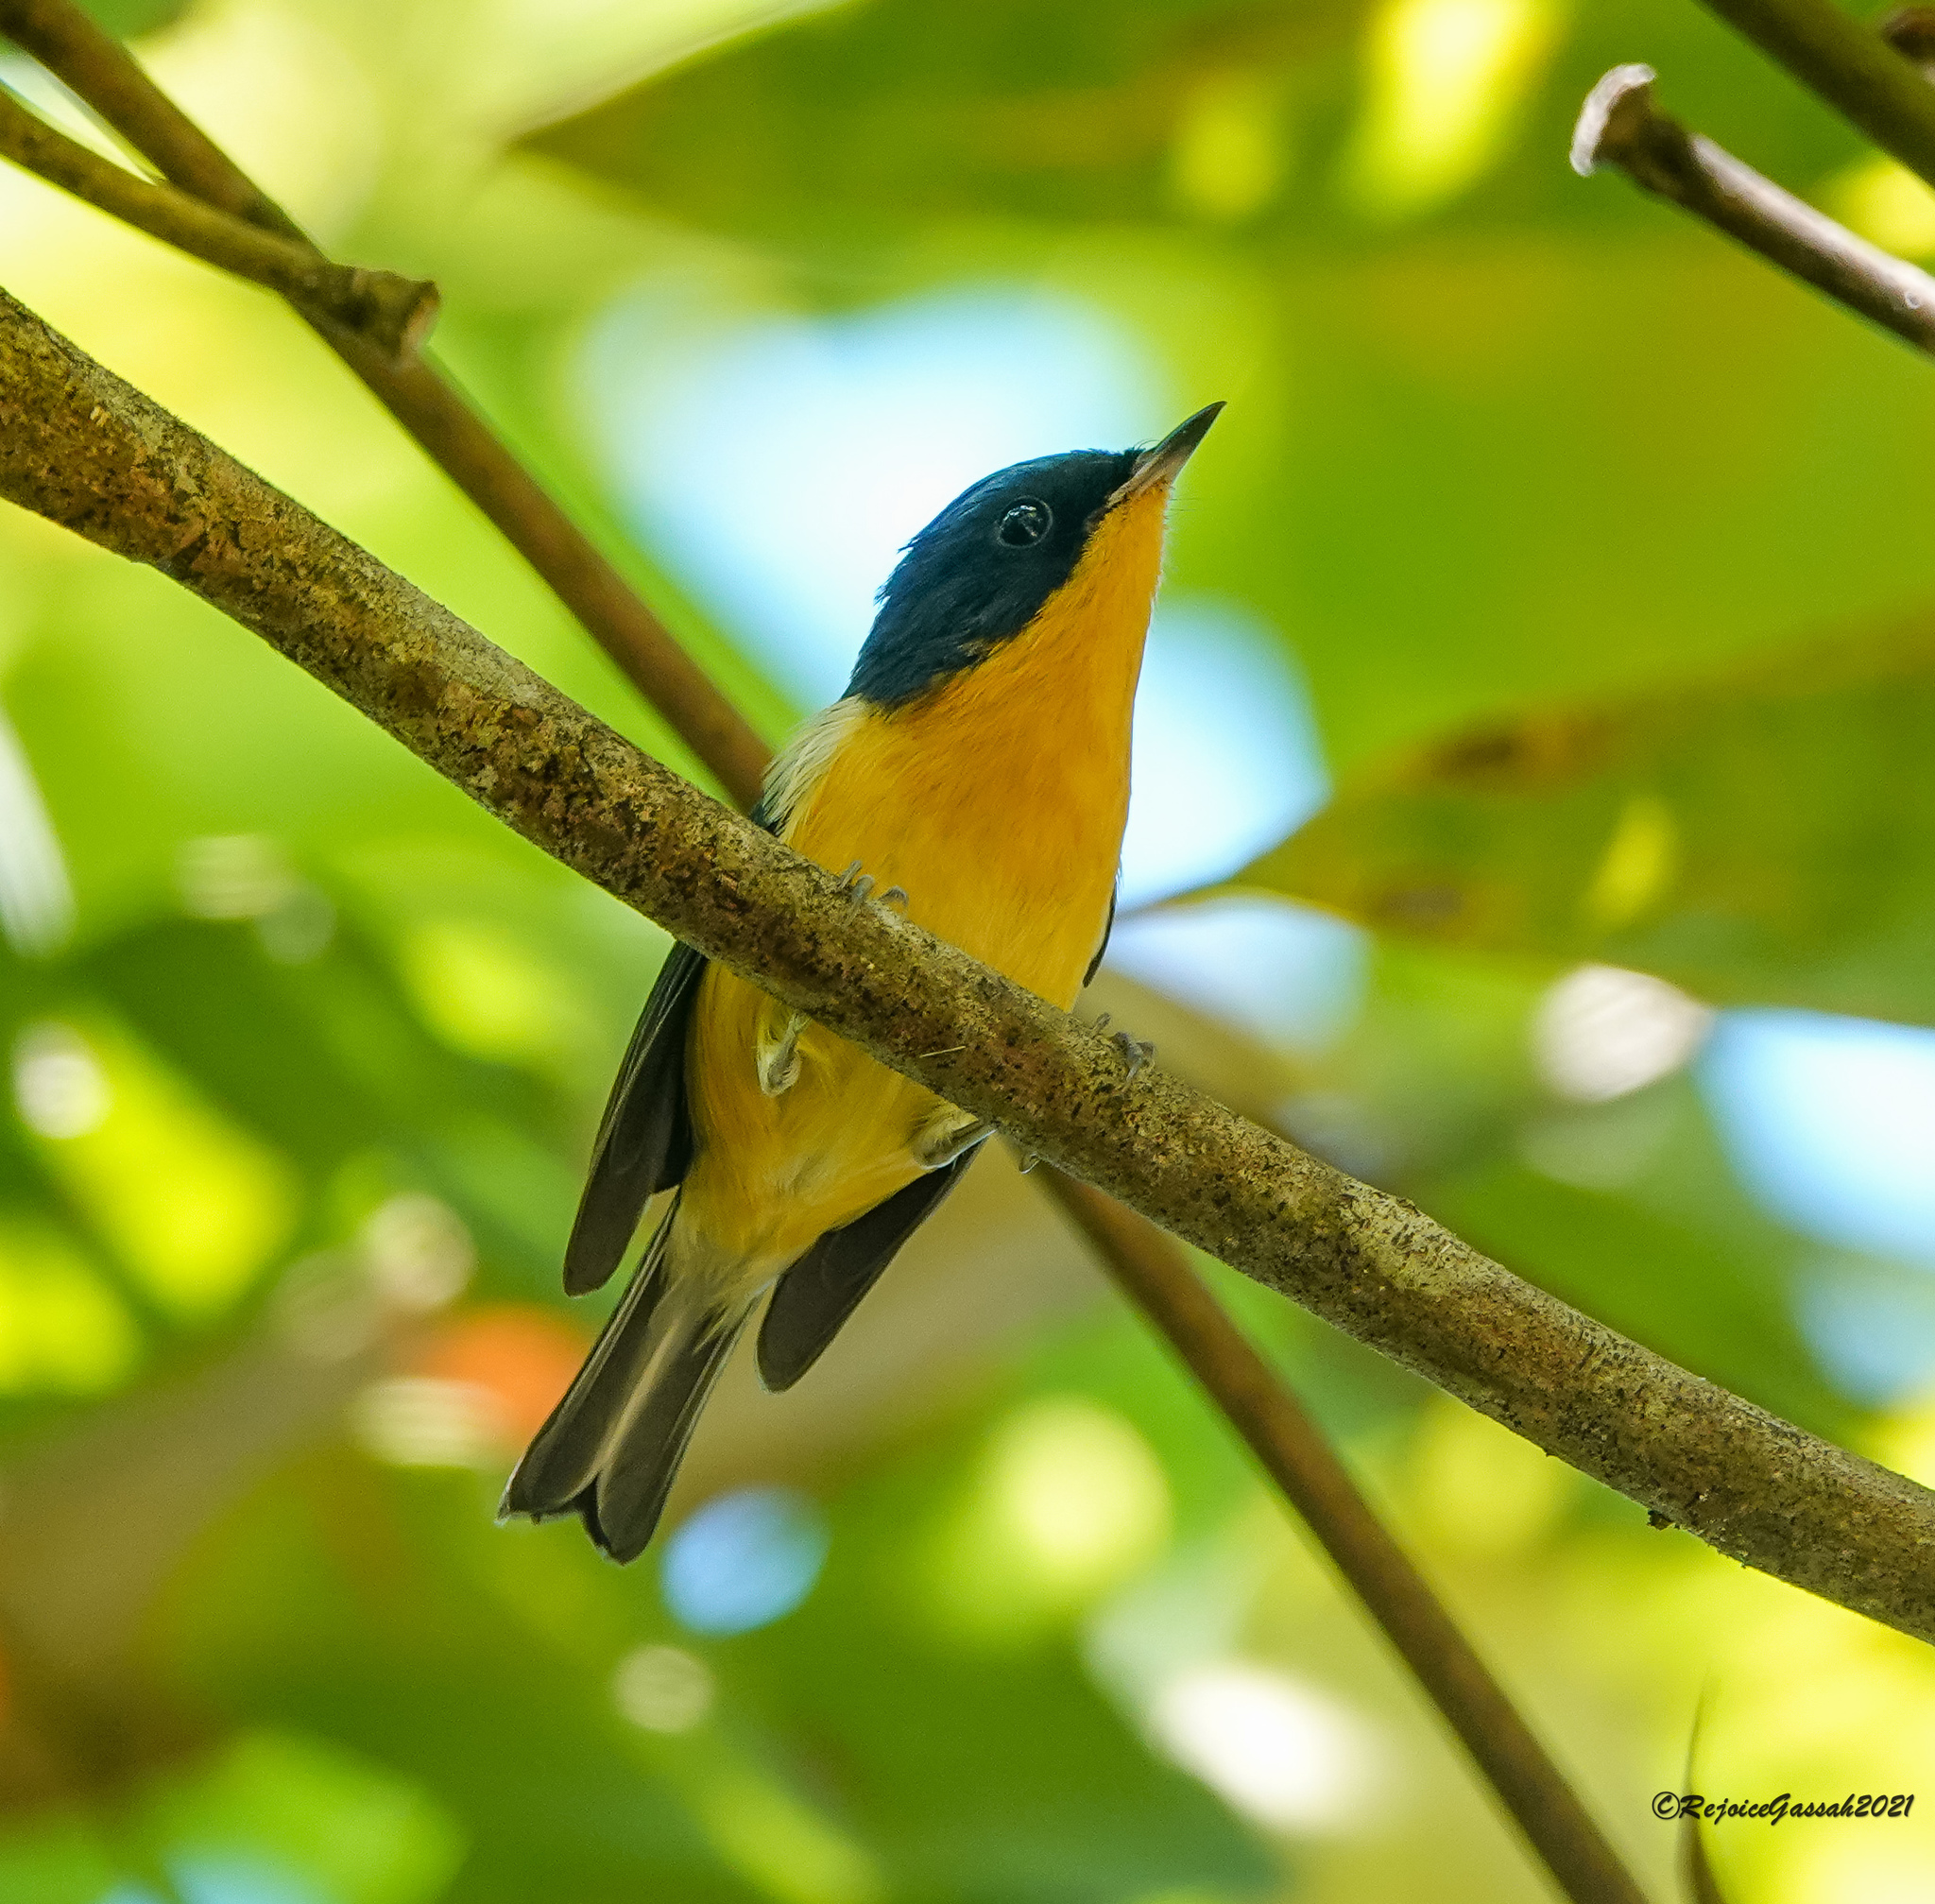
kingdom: Animalia
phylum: Chordata
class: Aves
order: Passeriformes
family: Muscicapidae
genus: Ficedula
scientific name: Ficedula hodgsoni
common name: Pygmy flycatcher
